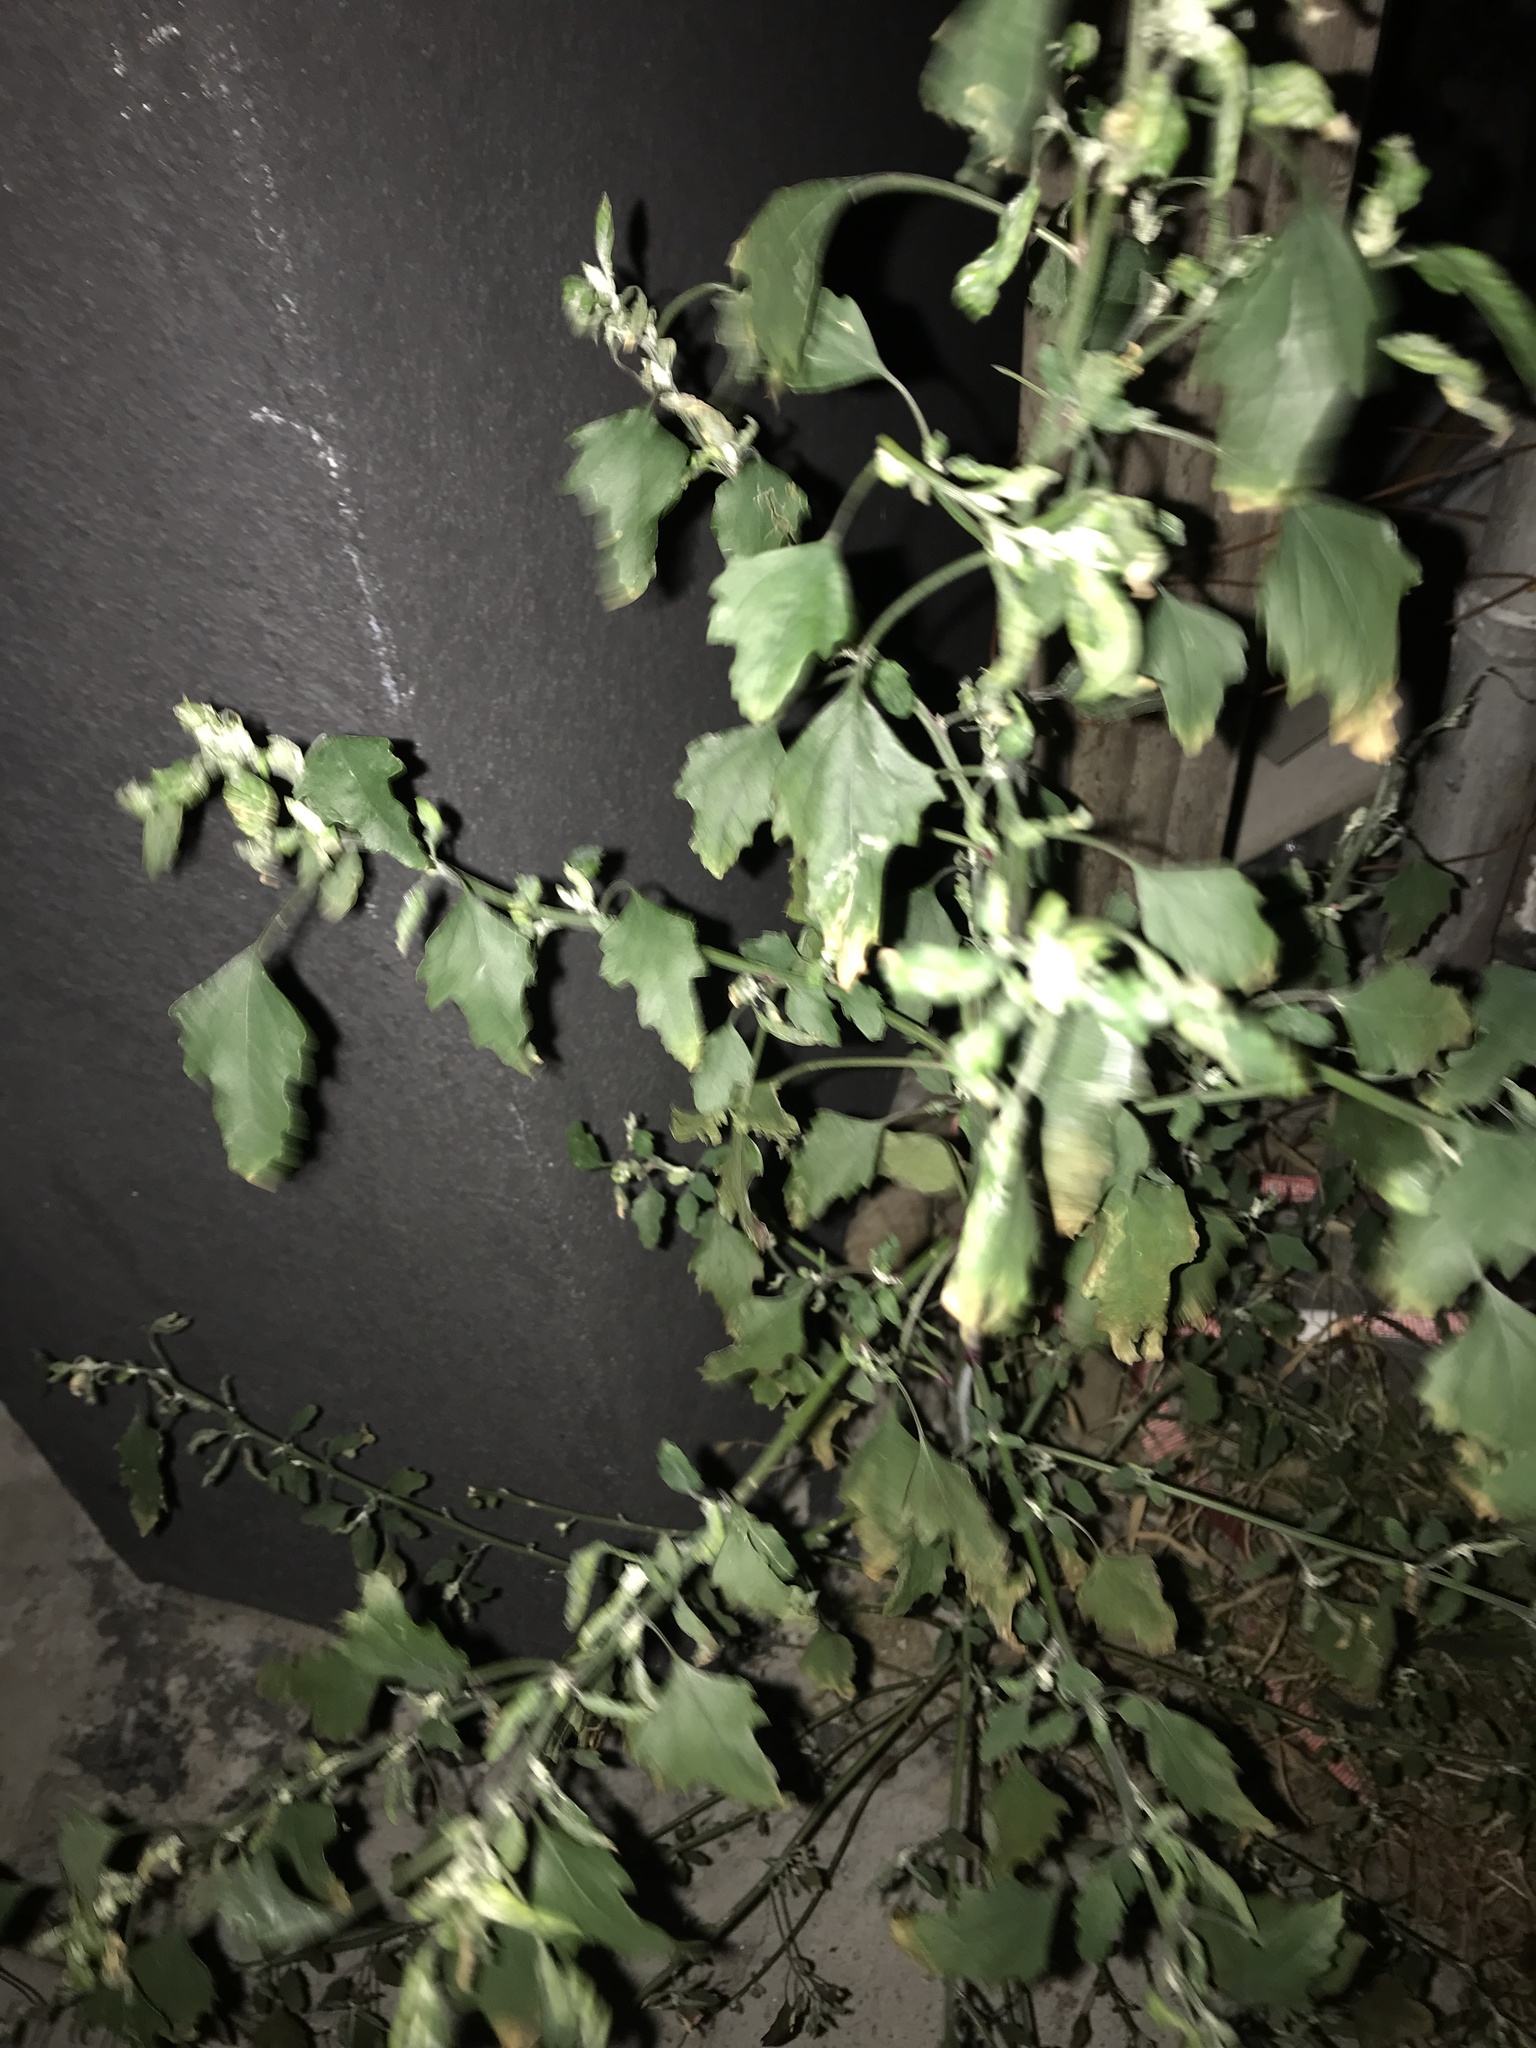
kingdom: Plantae
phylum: Tracheophyta
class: Magnoliopsida
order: Caryophyllales
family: Amaranthaceae
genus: Dysphania
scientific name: Dysphania pumilio
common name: Clammy goosefoot
